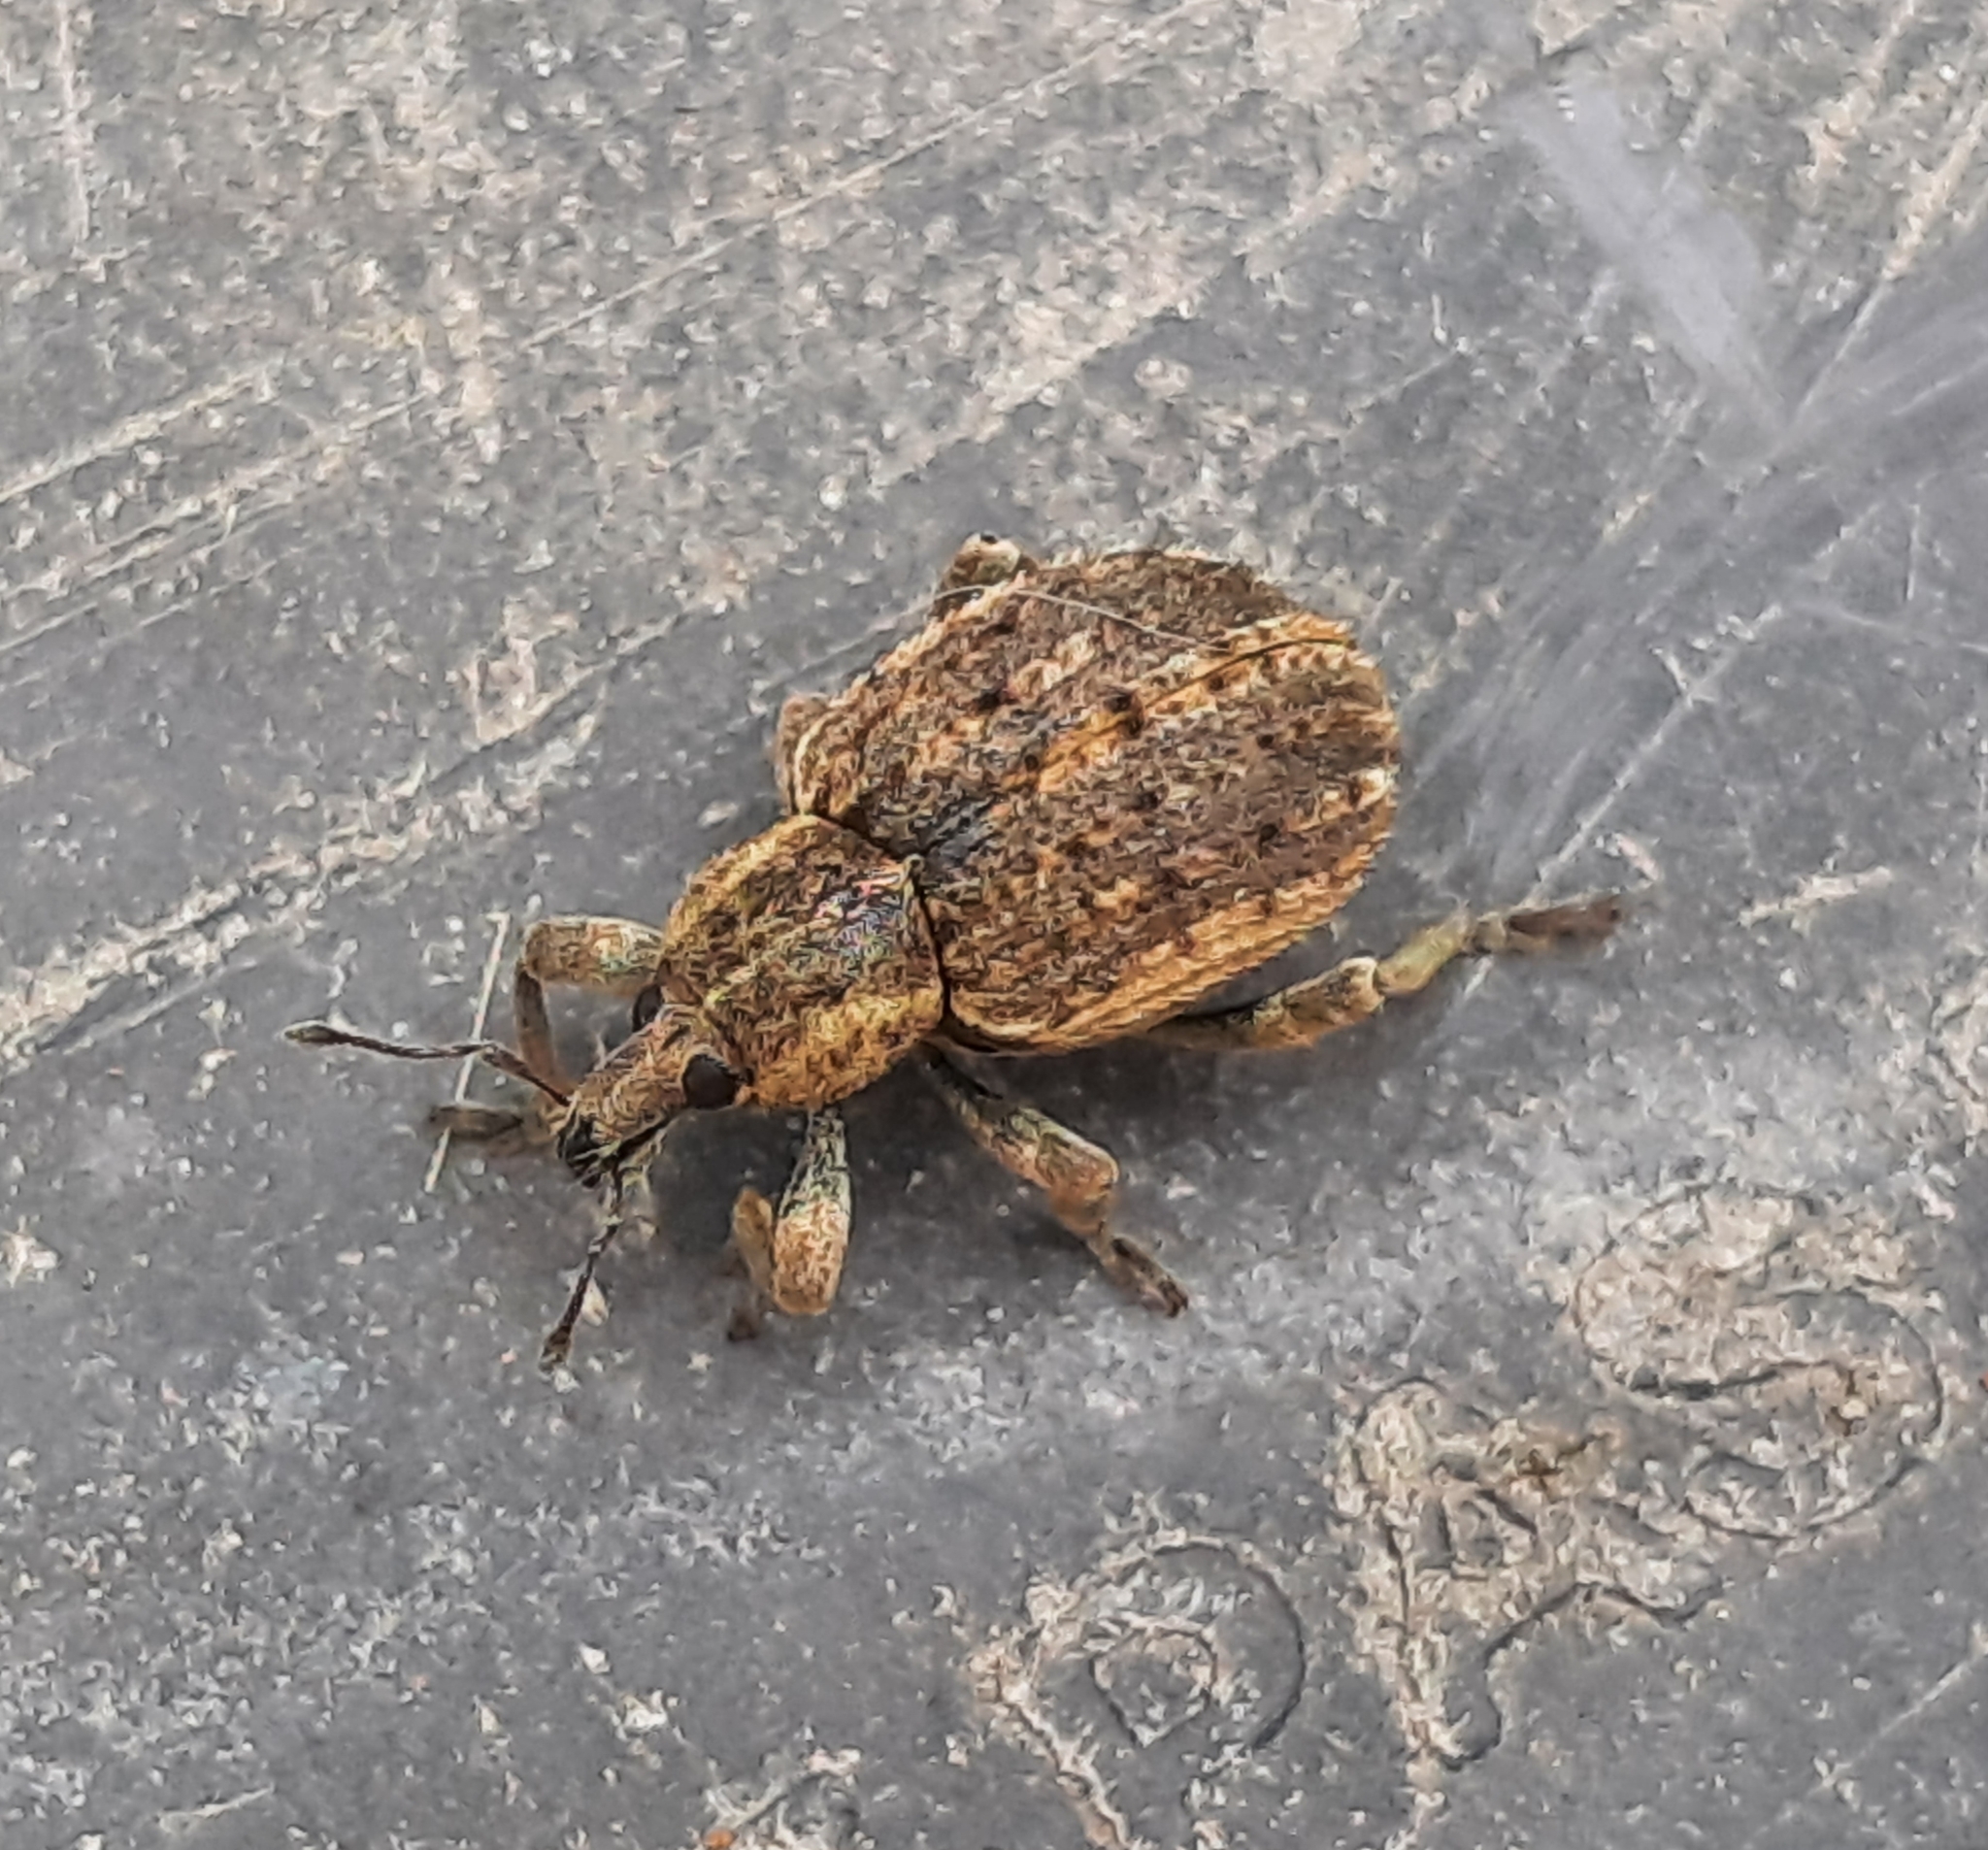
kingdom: Animalia
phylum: Arthropoda
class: Insecta
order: Coleoptera
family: Curculionidae
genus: Brachypera
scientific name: Brachypera zoilus
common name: Clover leaf weevil
